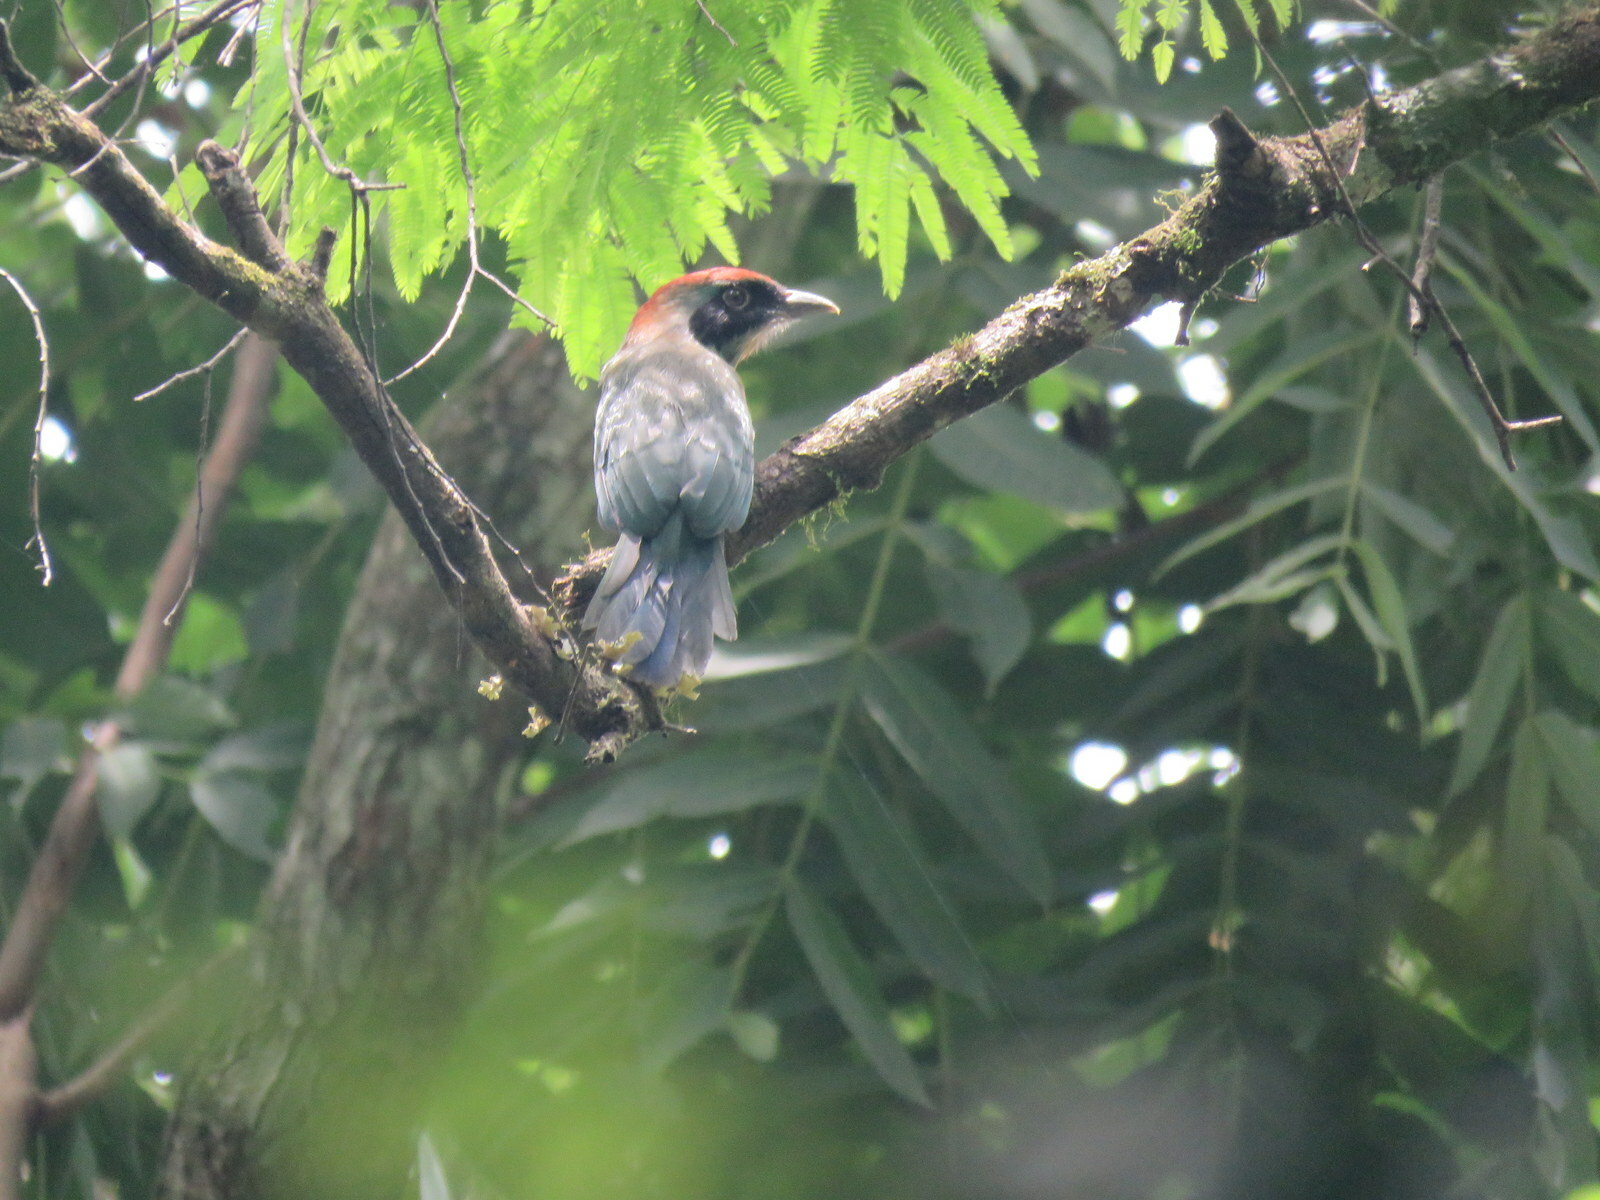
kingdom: Animalia
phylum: Chordata
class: Aves
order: Coraciiformes
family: Momotidae
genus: Baryphthengus
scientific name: Baryphthengus ruficapillus
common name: Rufous-capped motmot
